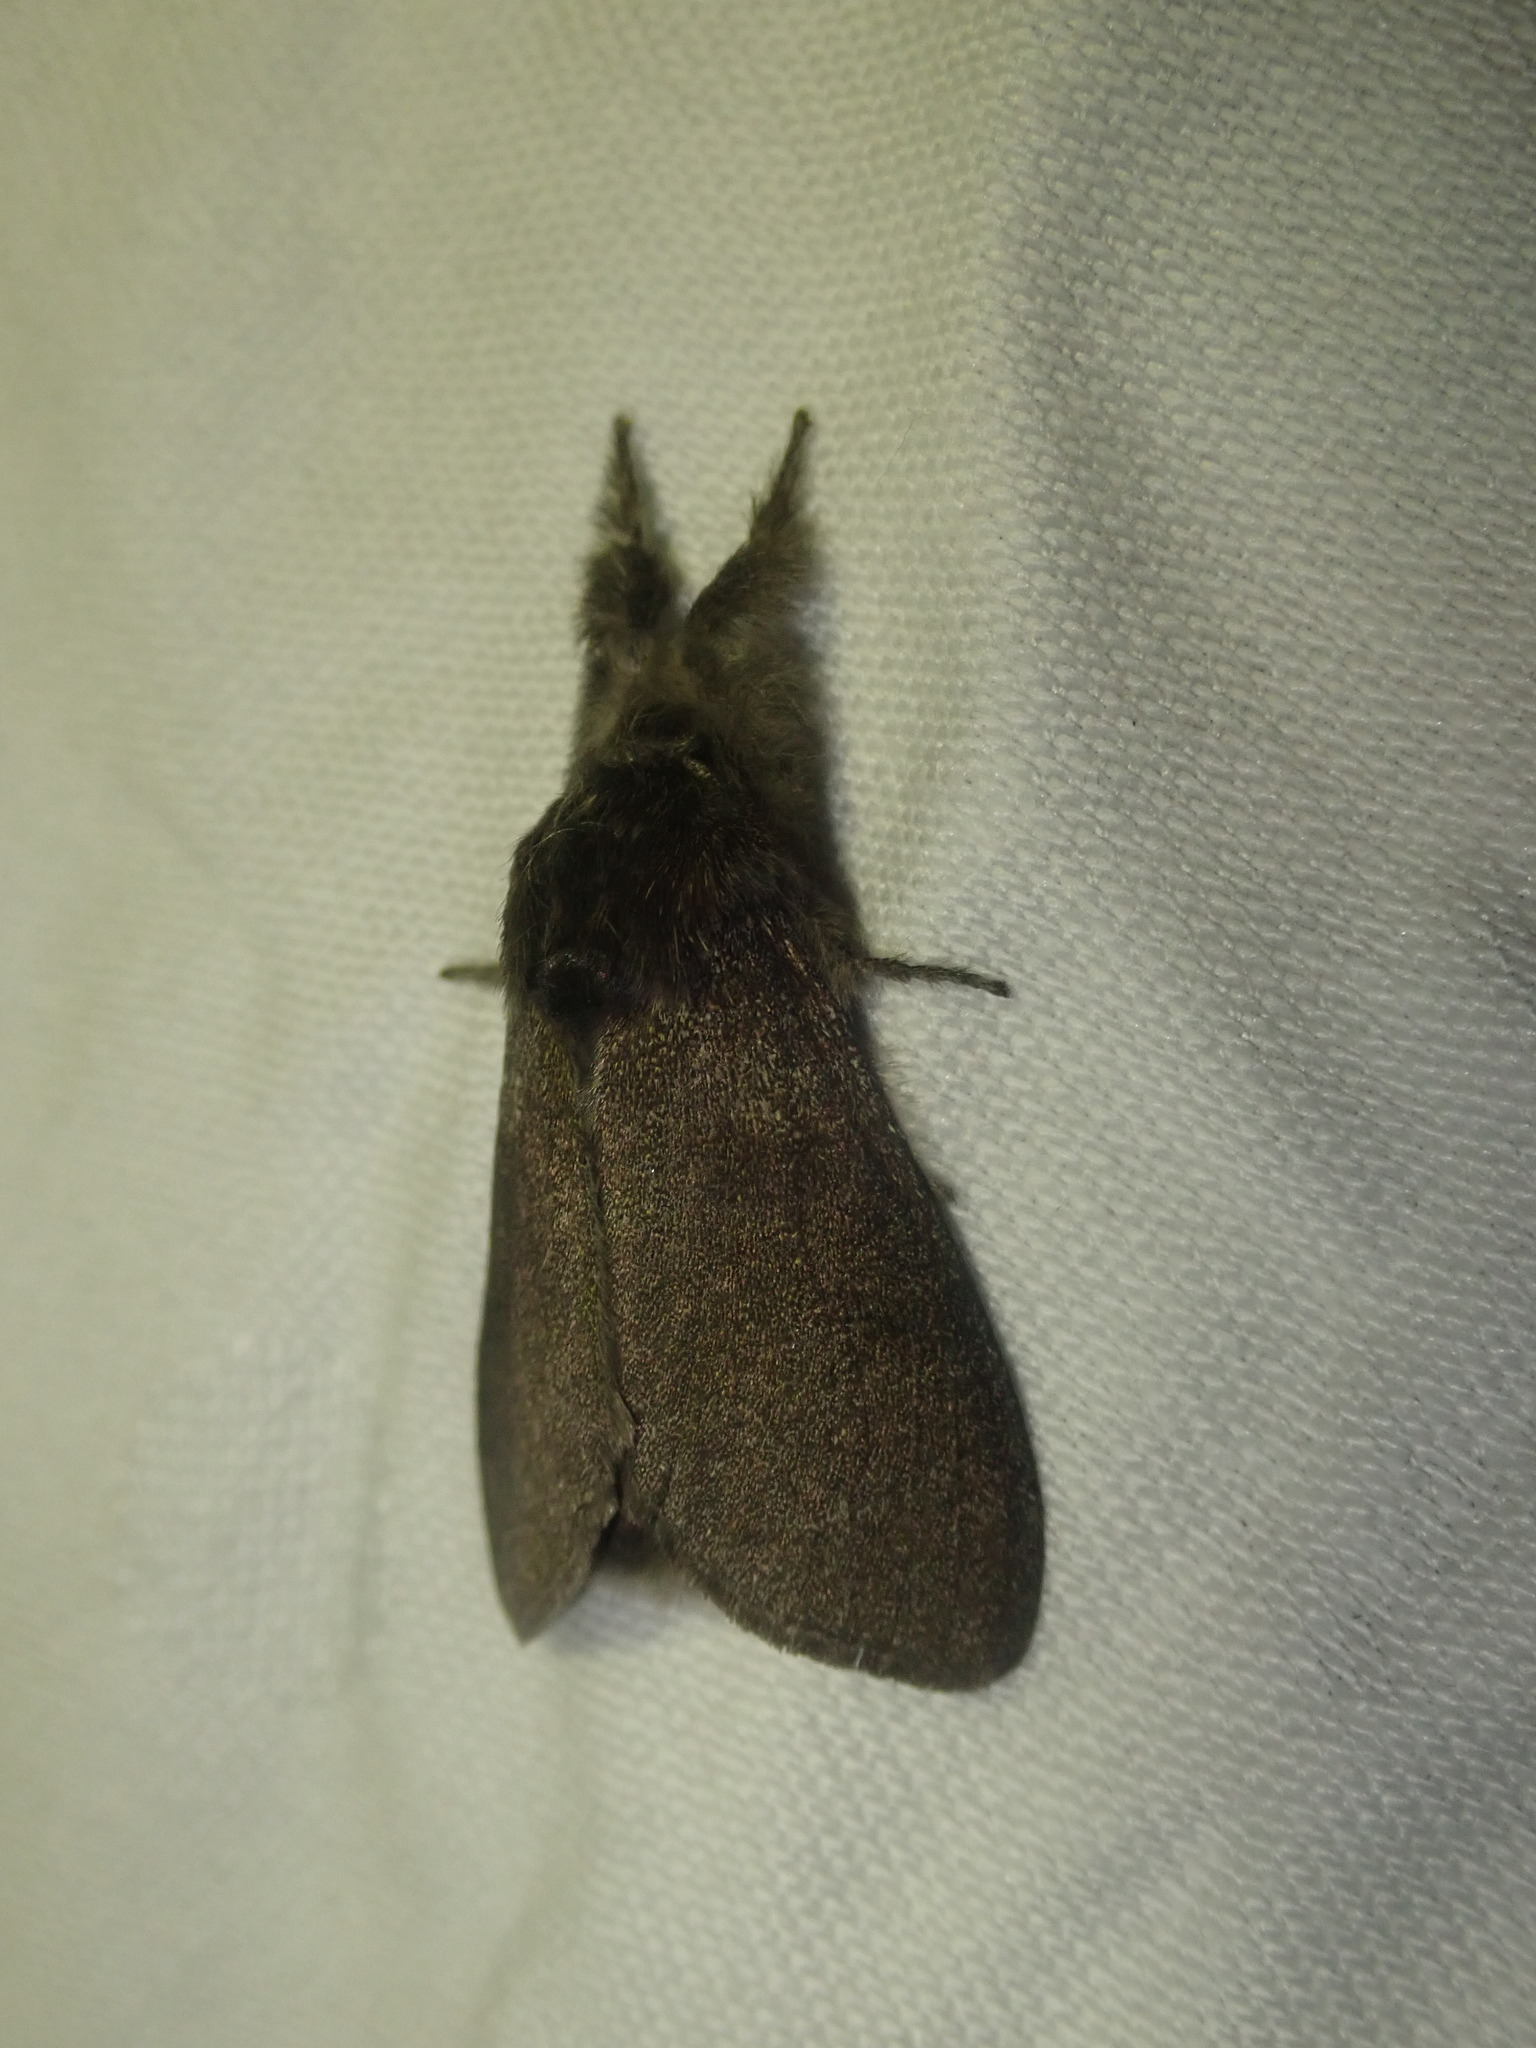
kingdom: Animalia
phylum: Arthropoda
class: Insecta
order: Lepidoptera
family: Erebidae
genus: Calliteara
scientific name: Calliteara pudibunda
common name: Pale tussock
